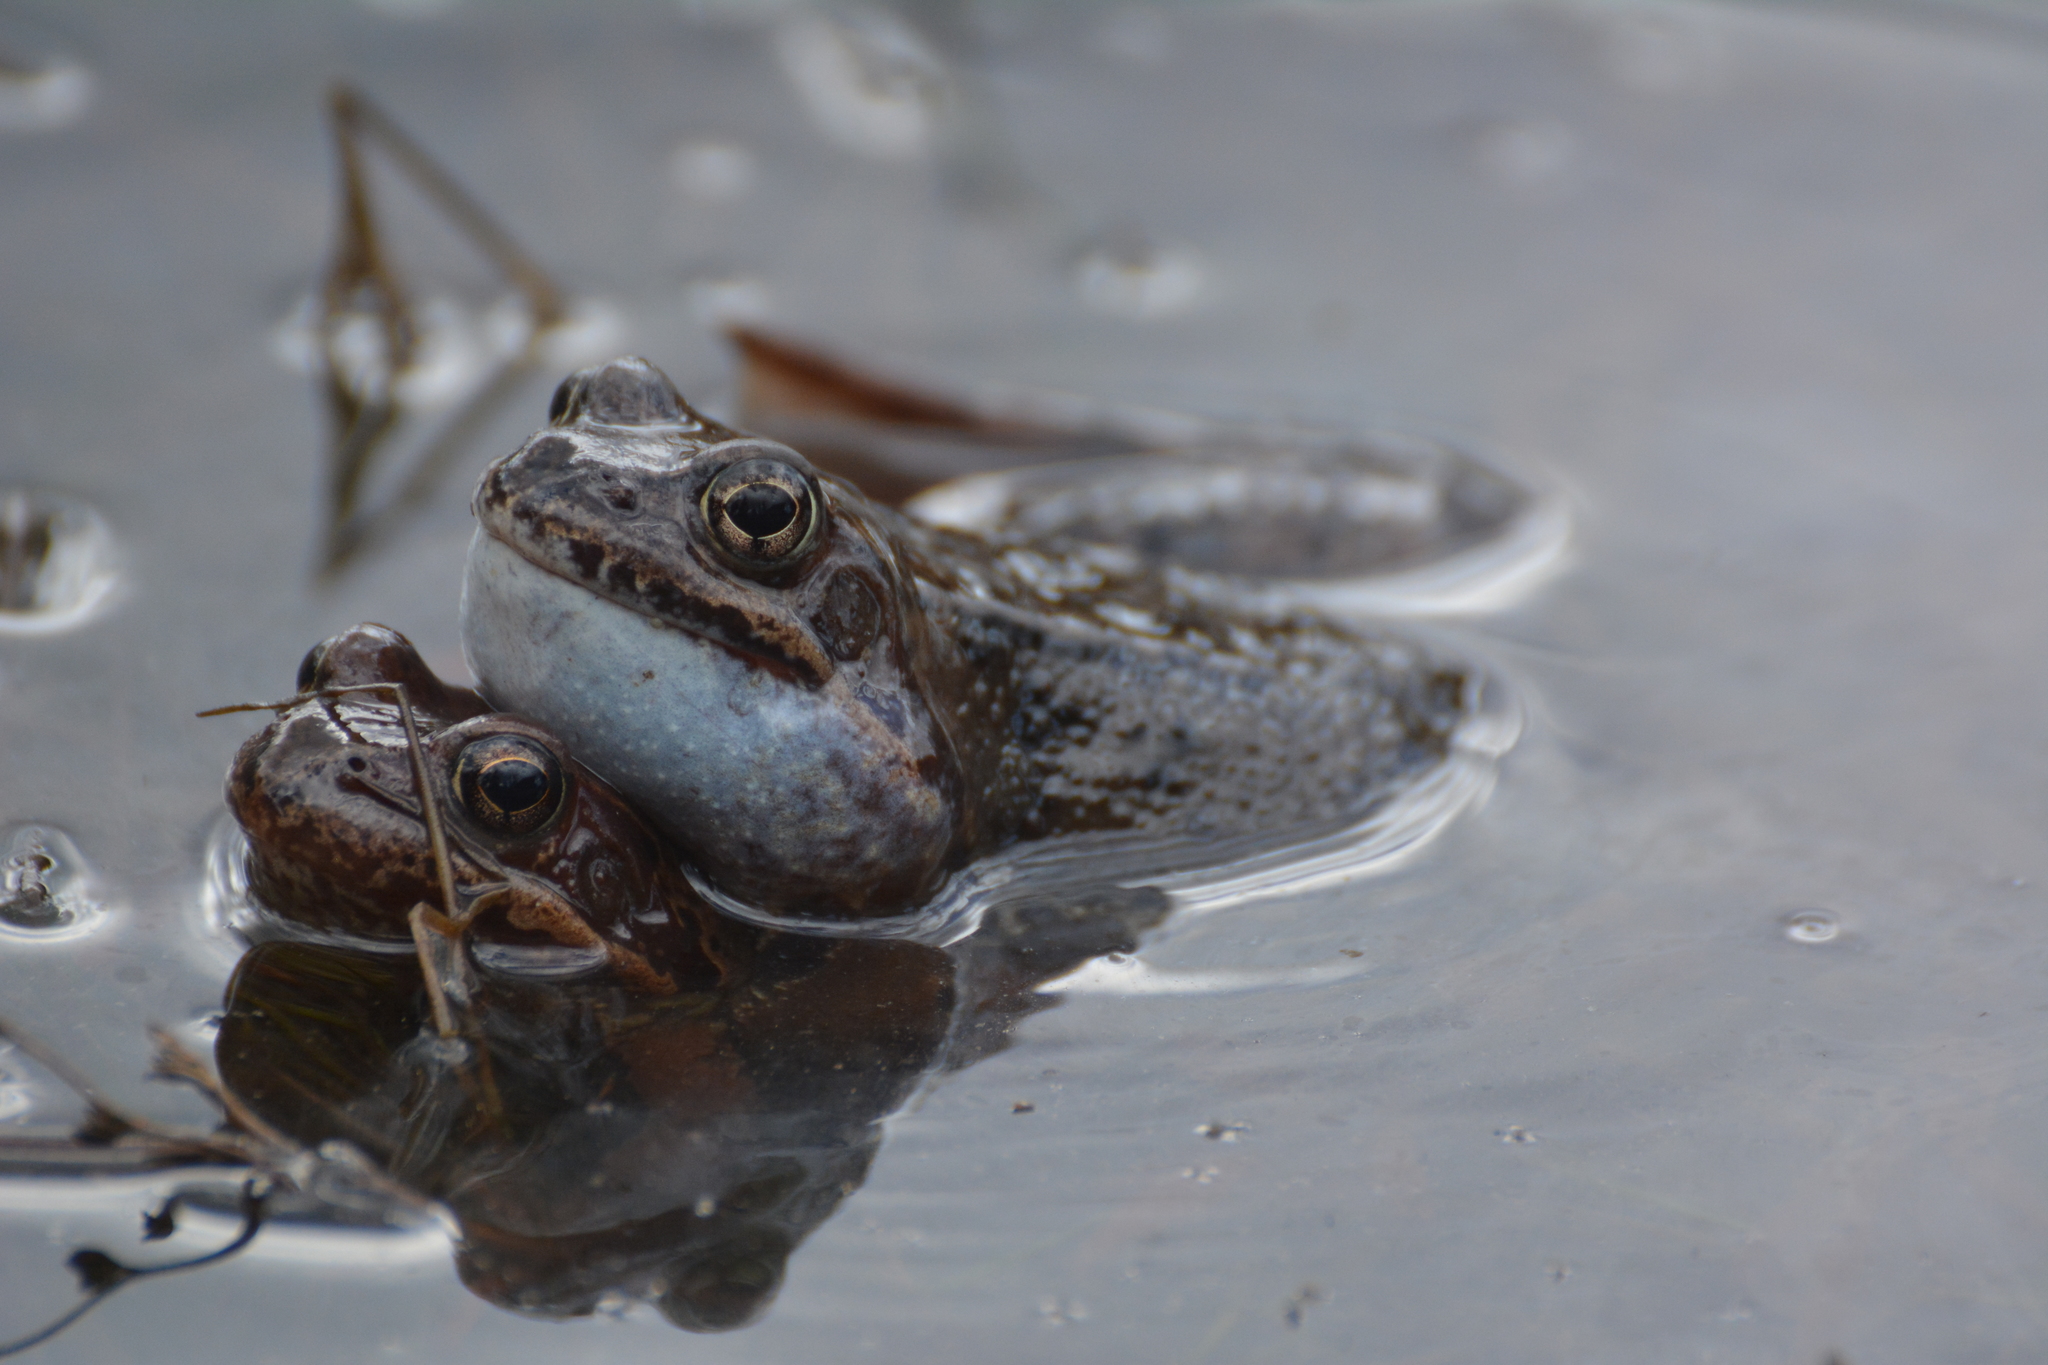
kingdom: Animalia
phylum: Chordata
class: Amphibia
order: Anura
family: Ranidae
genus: Rana
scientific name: Rana temporaria
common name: Common frog
